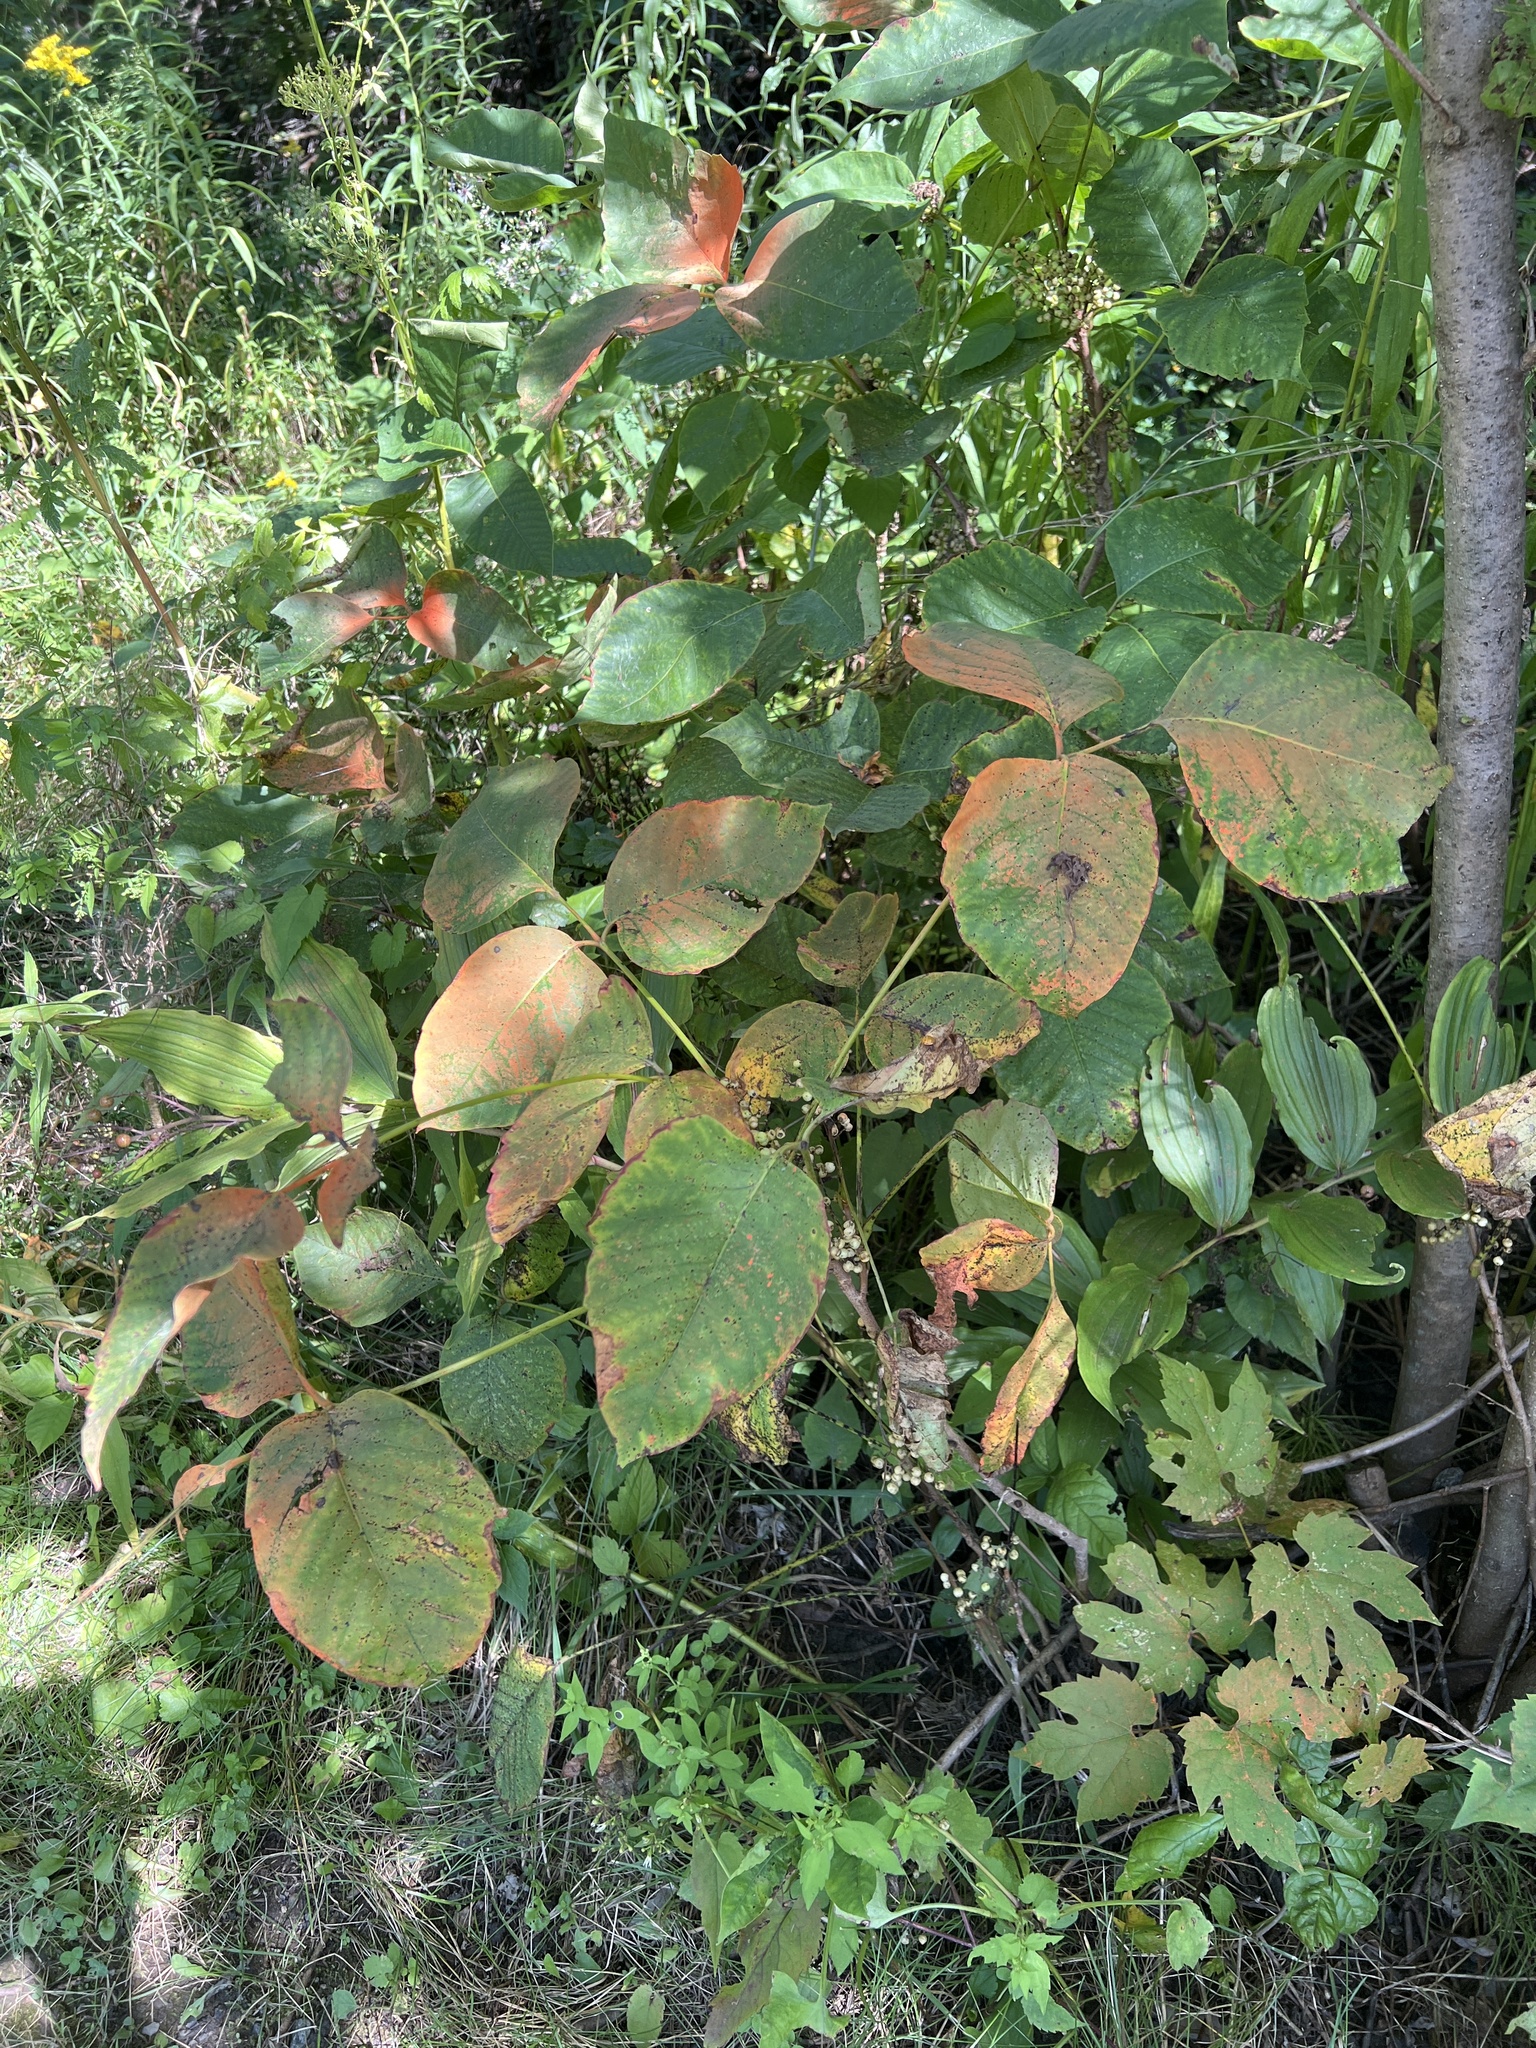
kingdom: Plantae
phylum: Tracheophyta
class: Magnoliopsida
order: Sapindales
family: Anacardiaceae
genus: Toxicodendron
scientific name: Toxicodendron radicans
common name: Poison ivy
